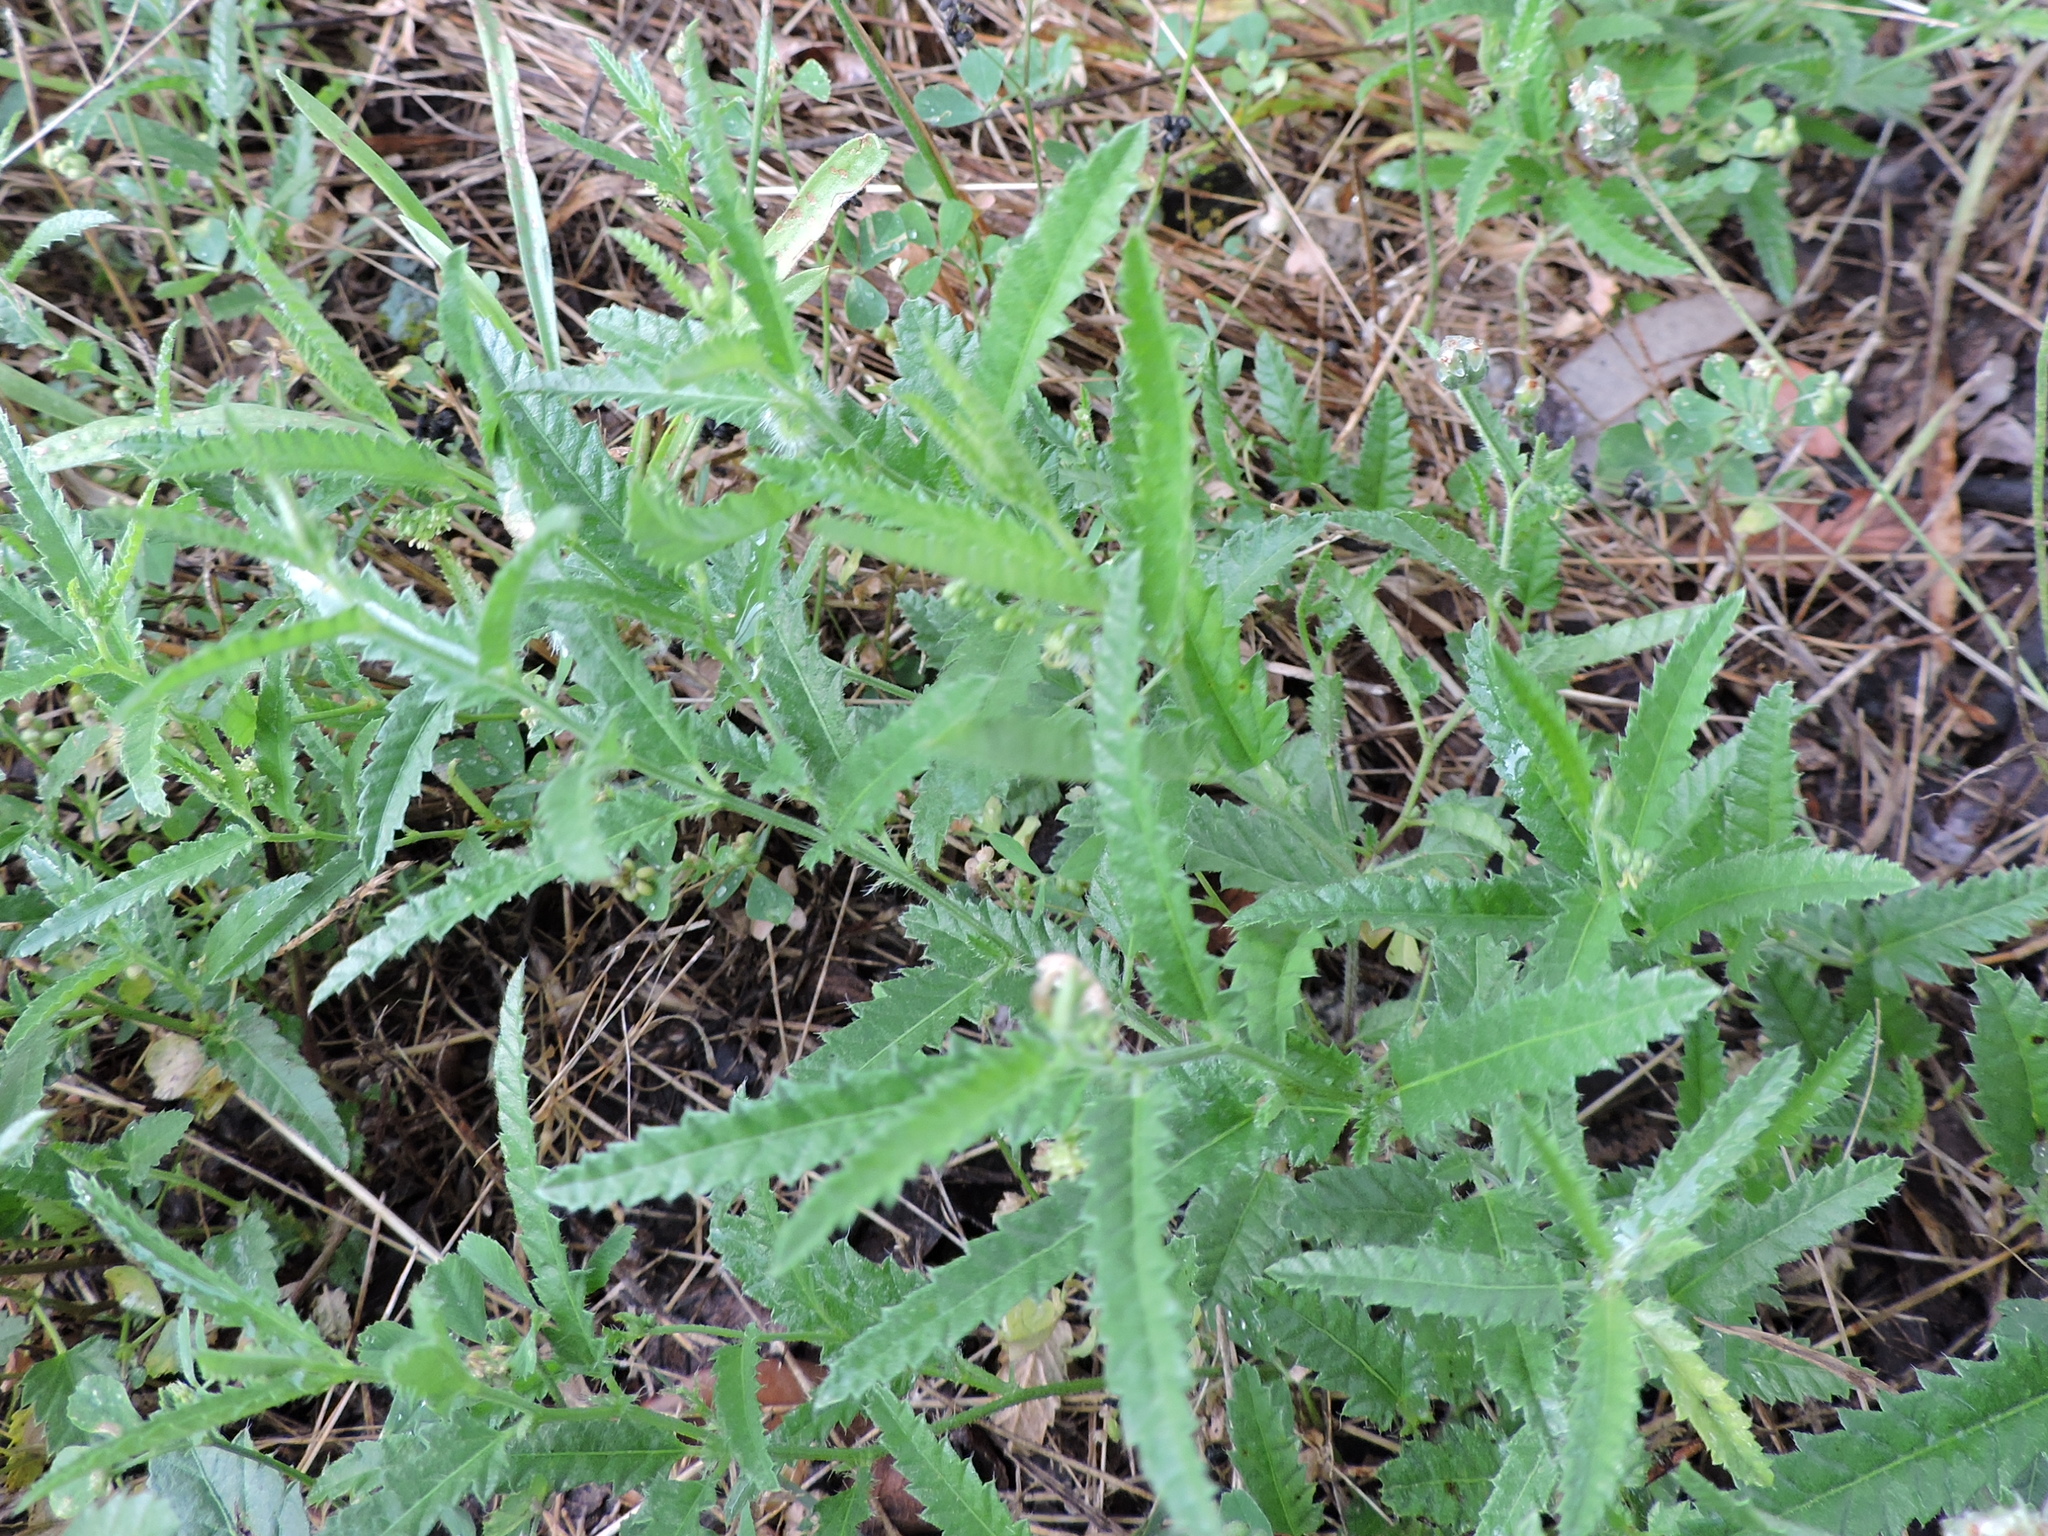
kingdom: Plantae
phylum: Tracheophyta
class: Magnoliopsida
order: Malpighiales
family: Euphorbiaceae
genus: Tragia
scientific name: Tragia ramosa
